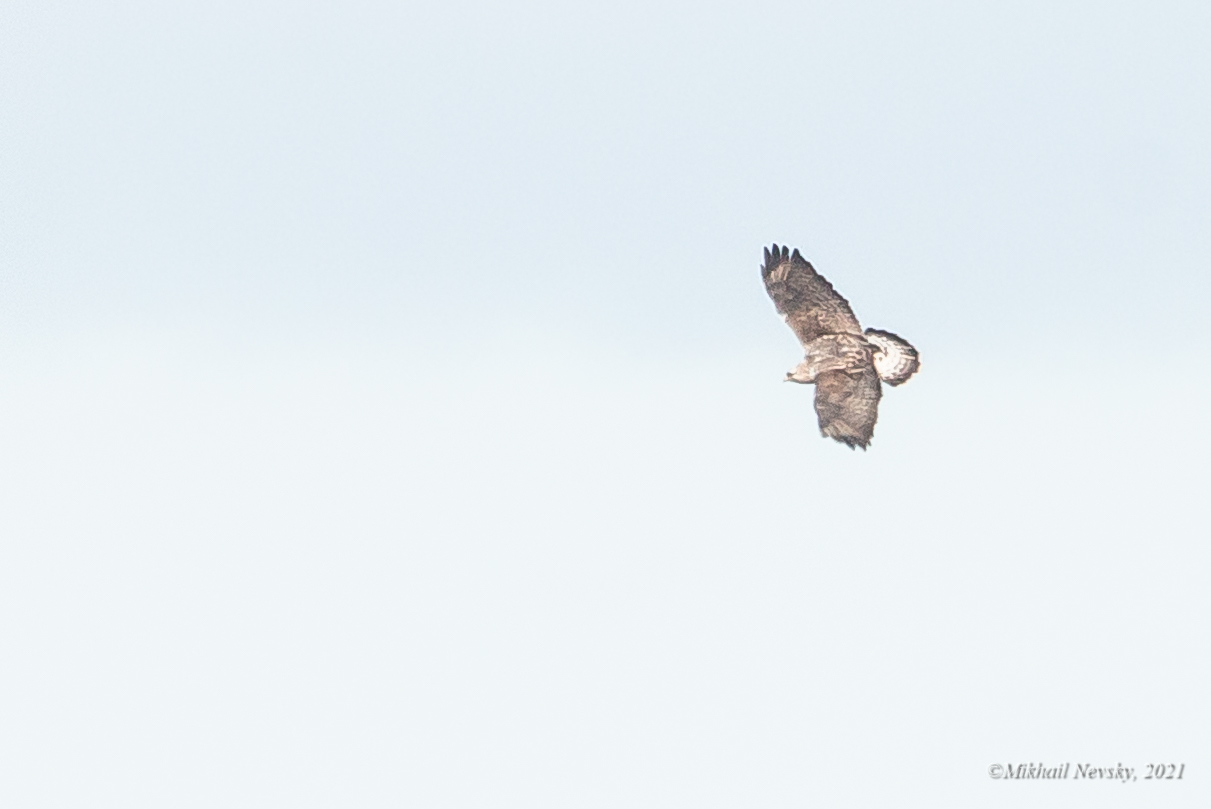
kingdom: Animalia
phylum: Chordata
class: Aves
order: Accipitriformes
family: Accipitridae
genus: Buteo
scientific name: Buteo lagopus
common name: Rough-legged buzzard
